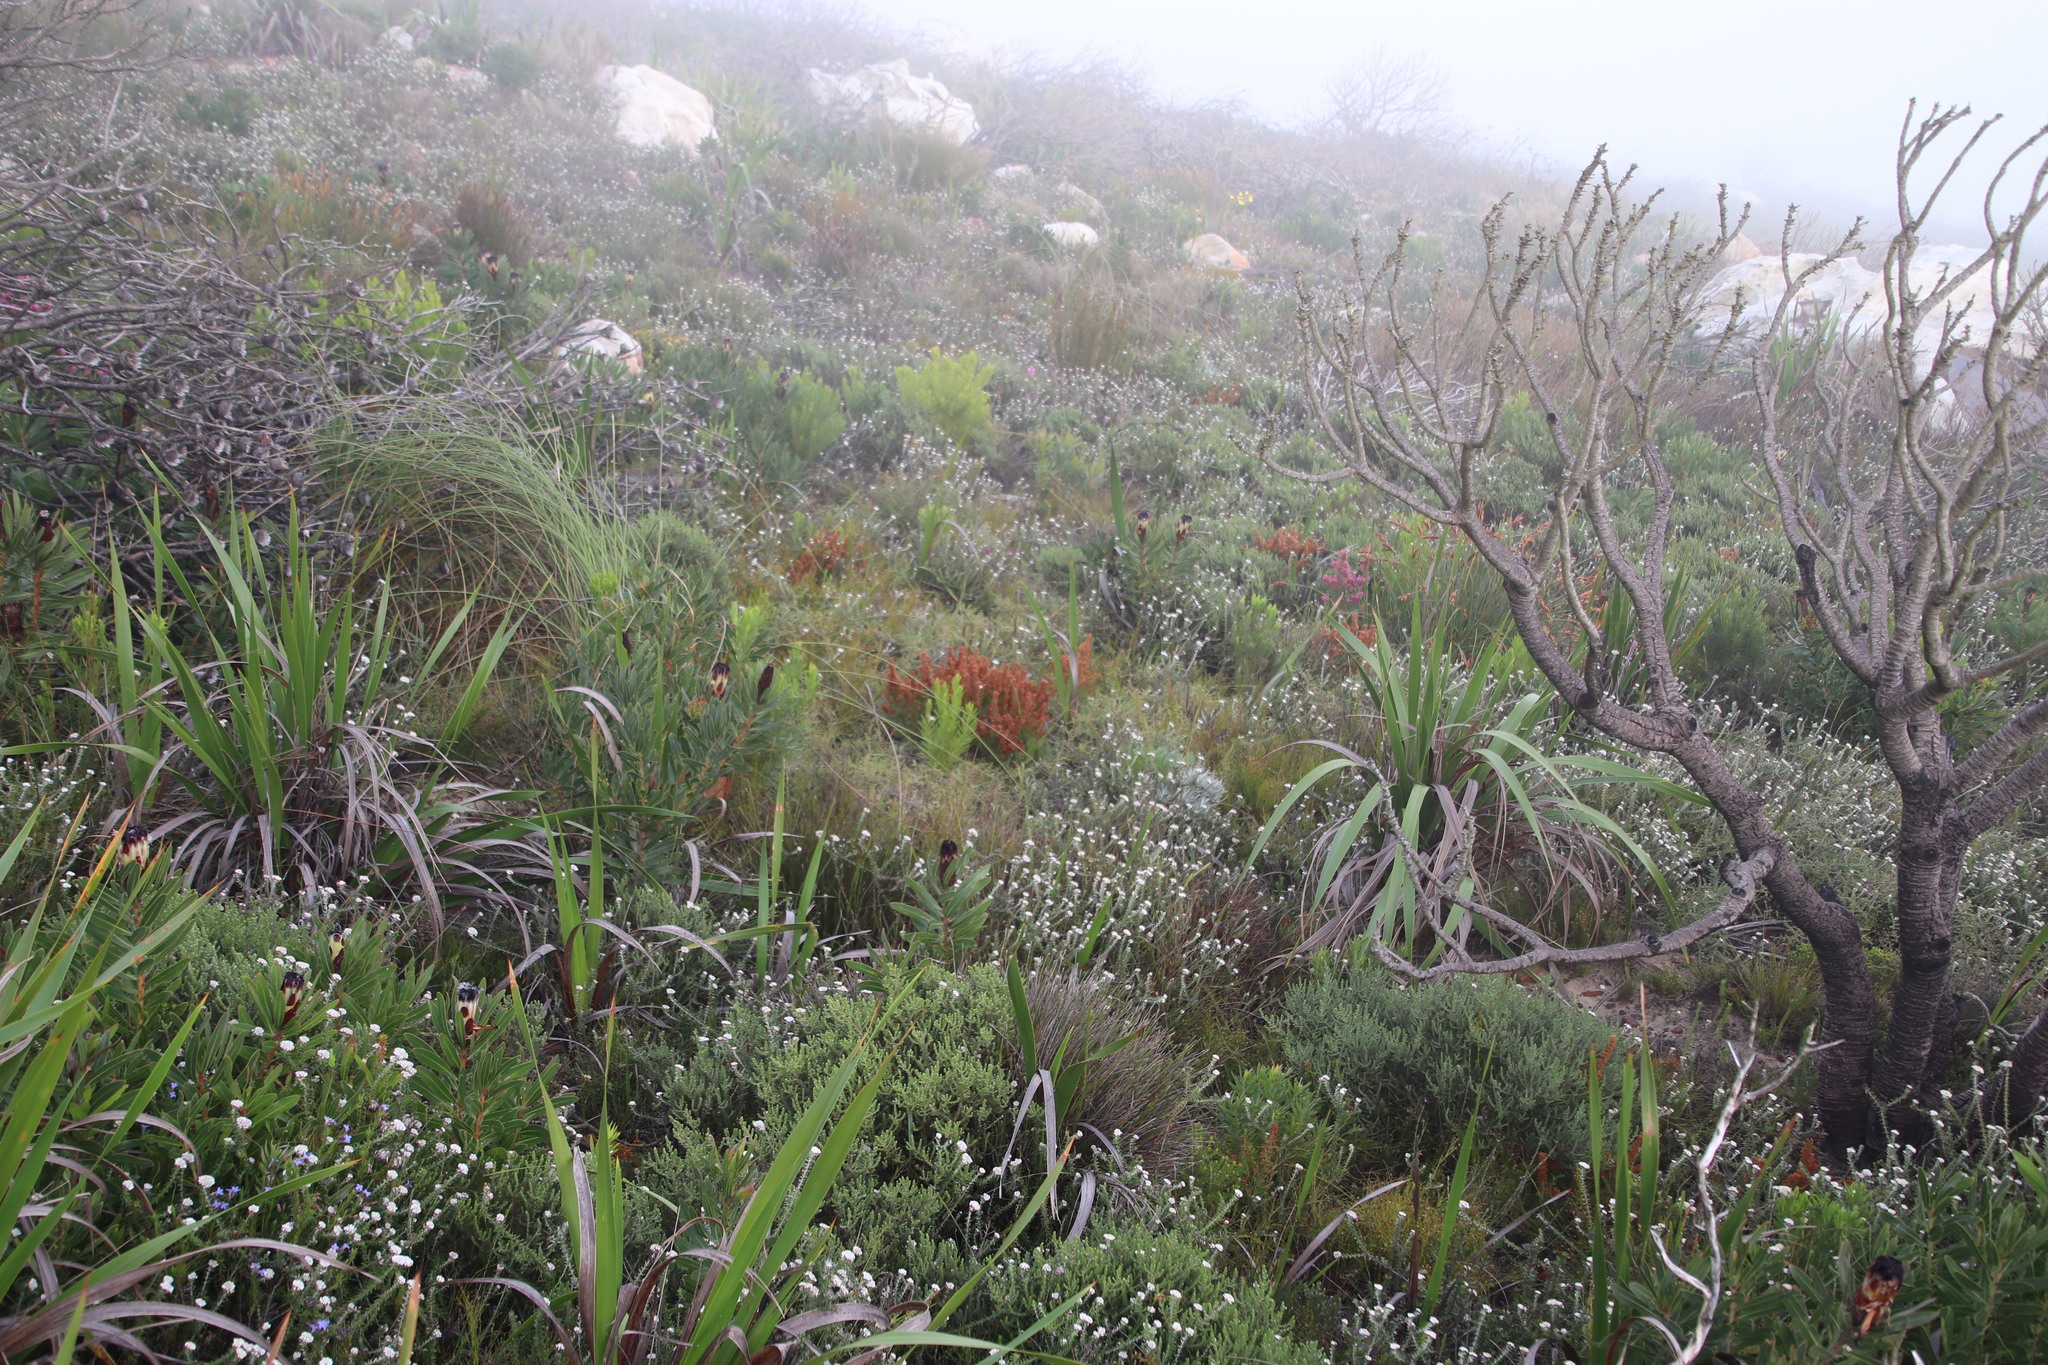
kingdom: Plantae
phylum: Tracheophyta
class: Magnoliopsida
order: Ericales
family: Ericaceae
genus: Erica
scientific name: Erica nudiflora
